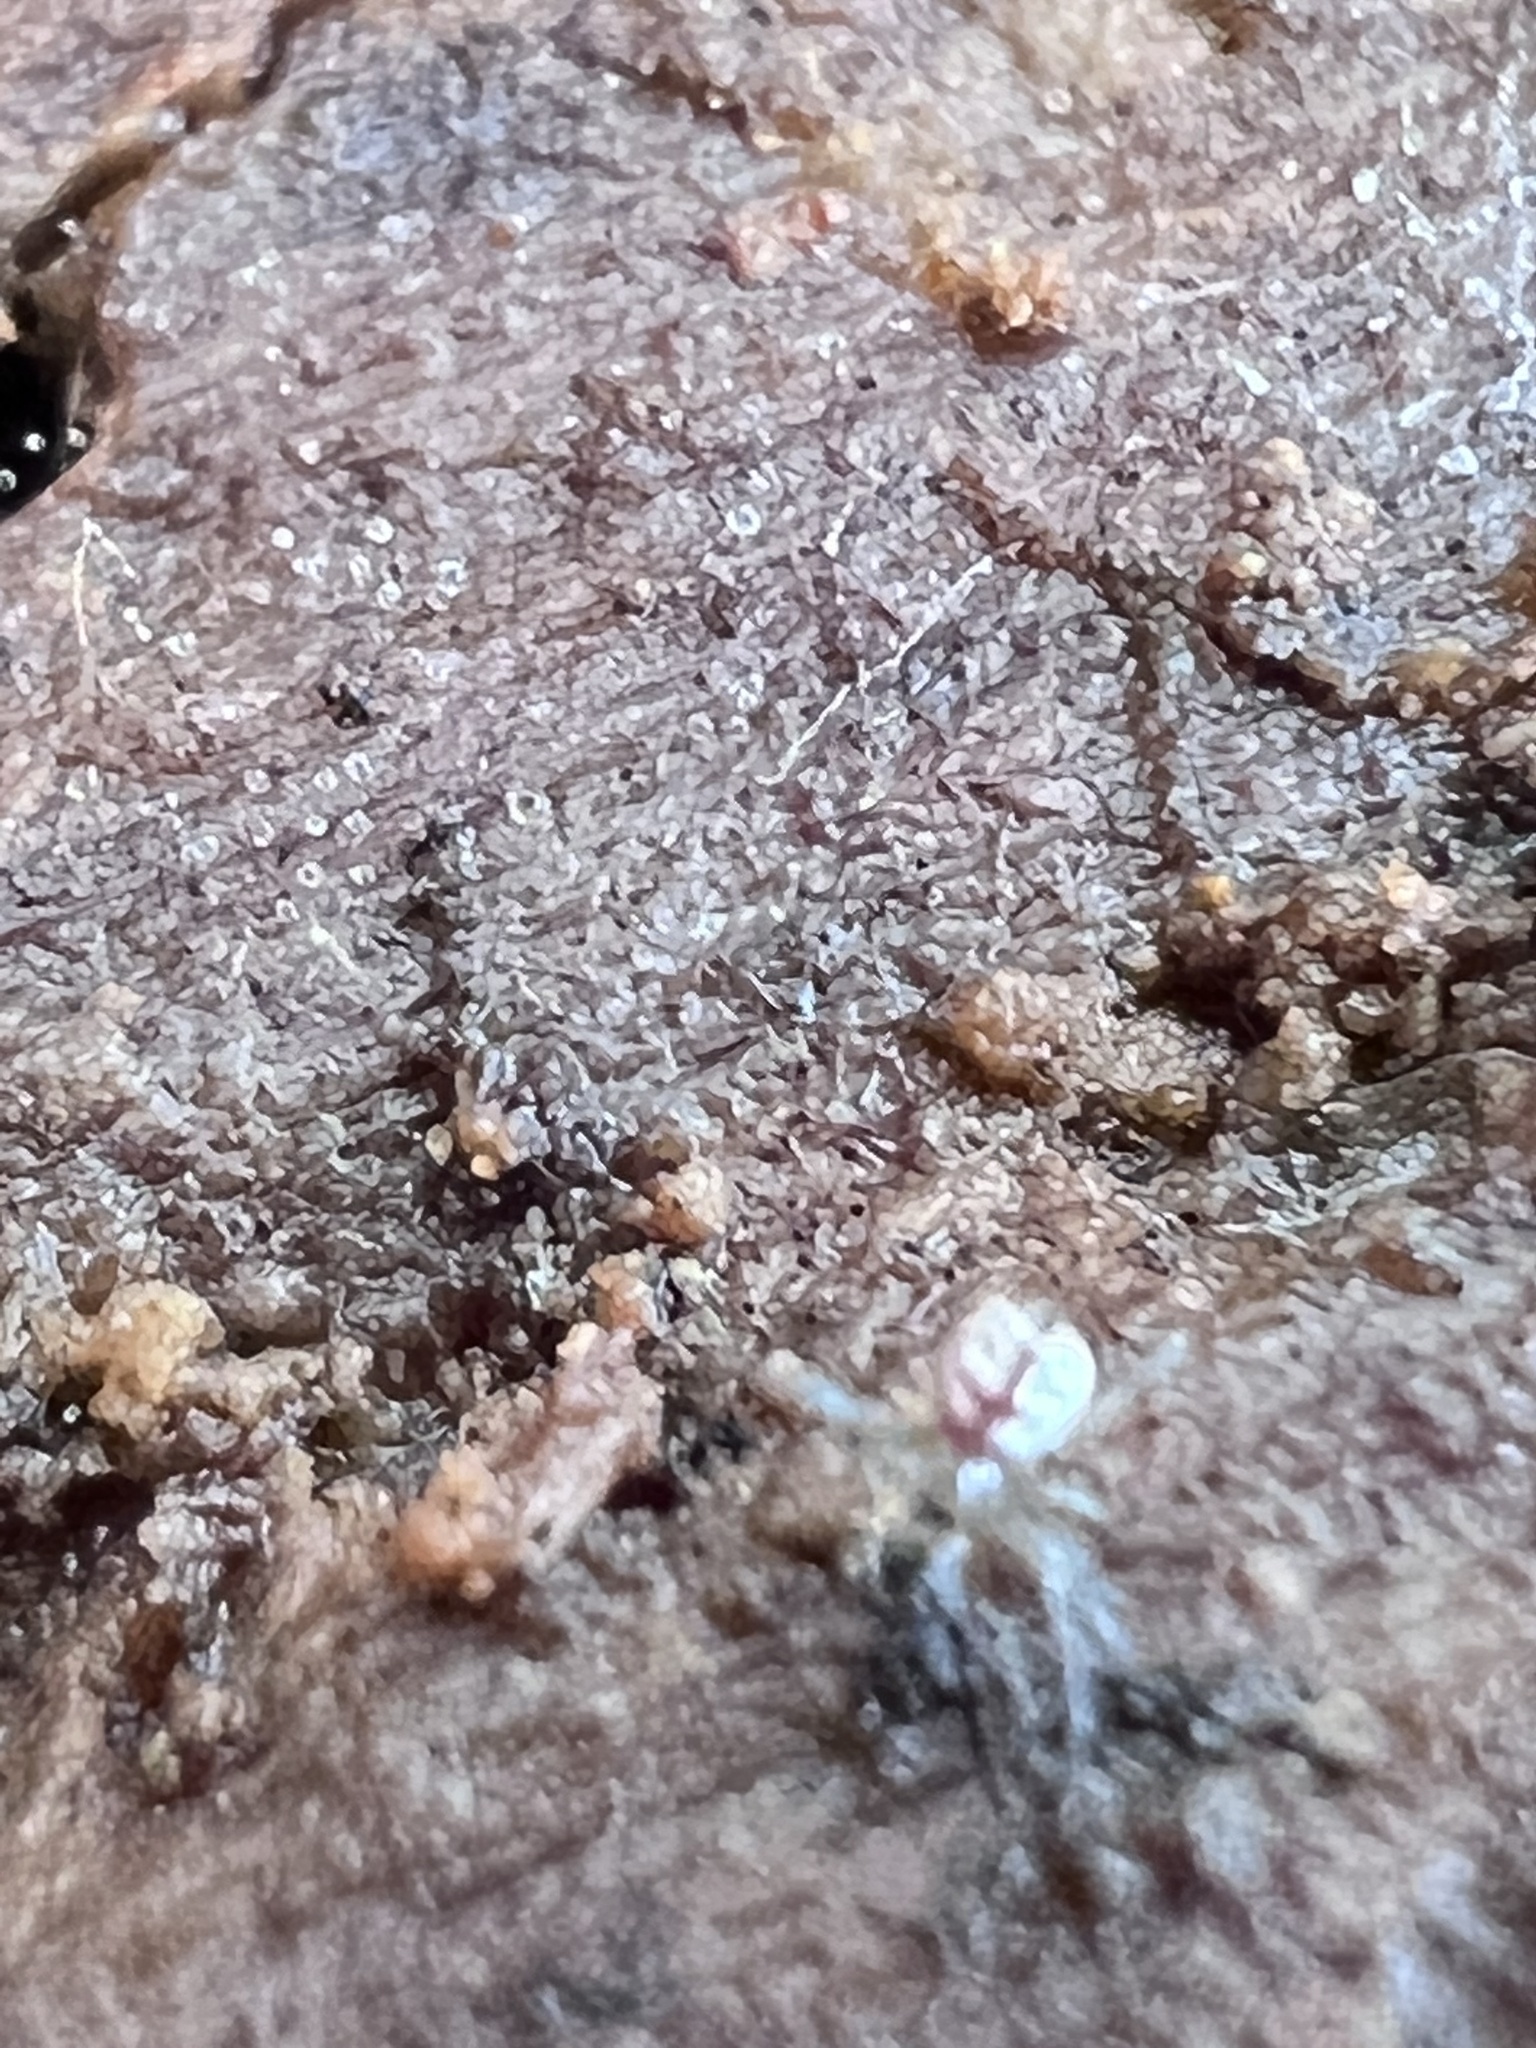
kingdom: Animalia
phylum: Arthropoda
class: Arachnida
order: Araneae
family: Tetragnathidae
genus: Leucauge
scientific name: Leucauge venusta
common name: Longjawed orb weavers
